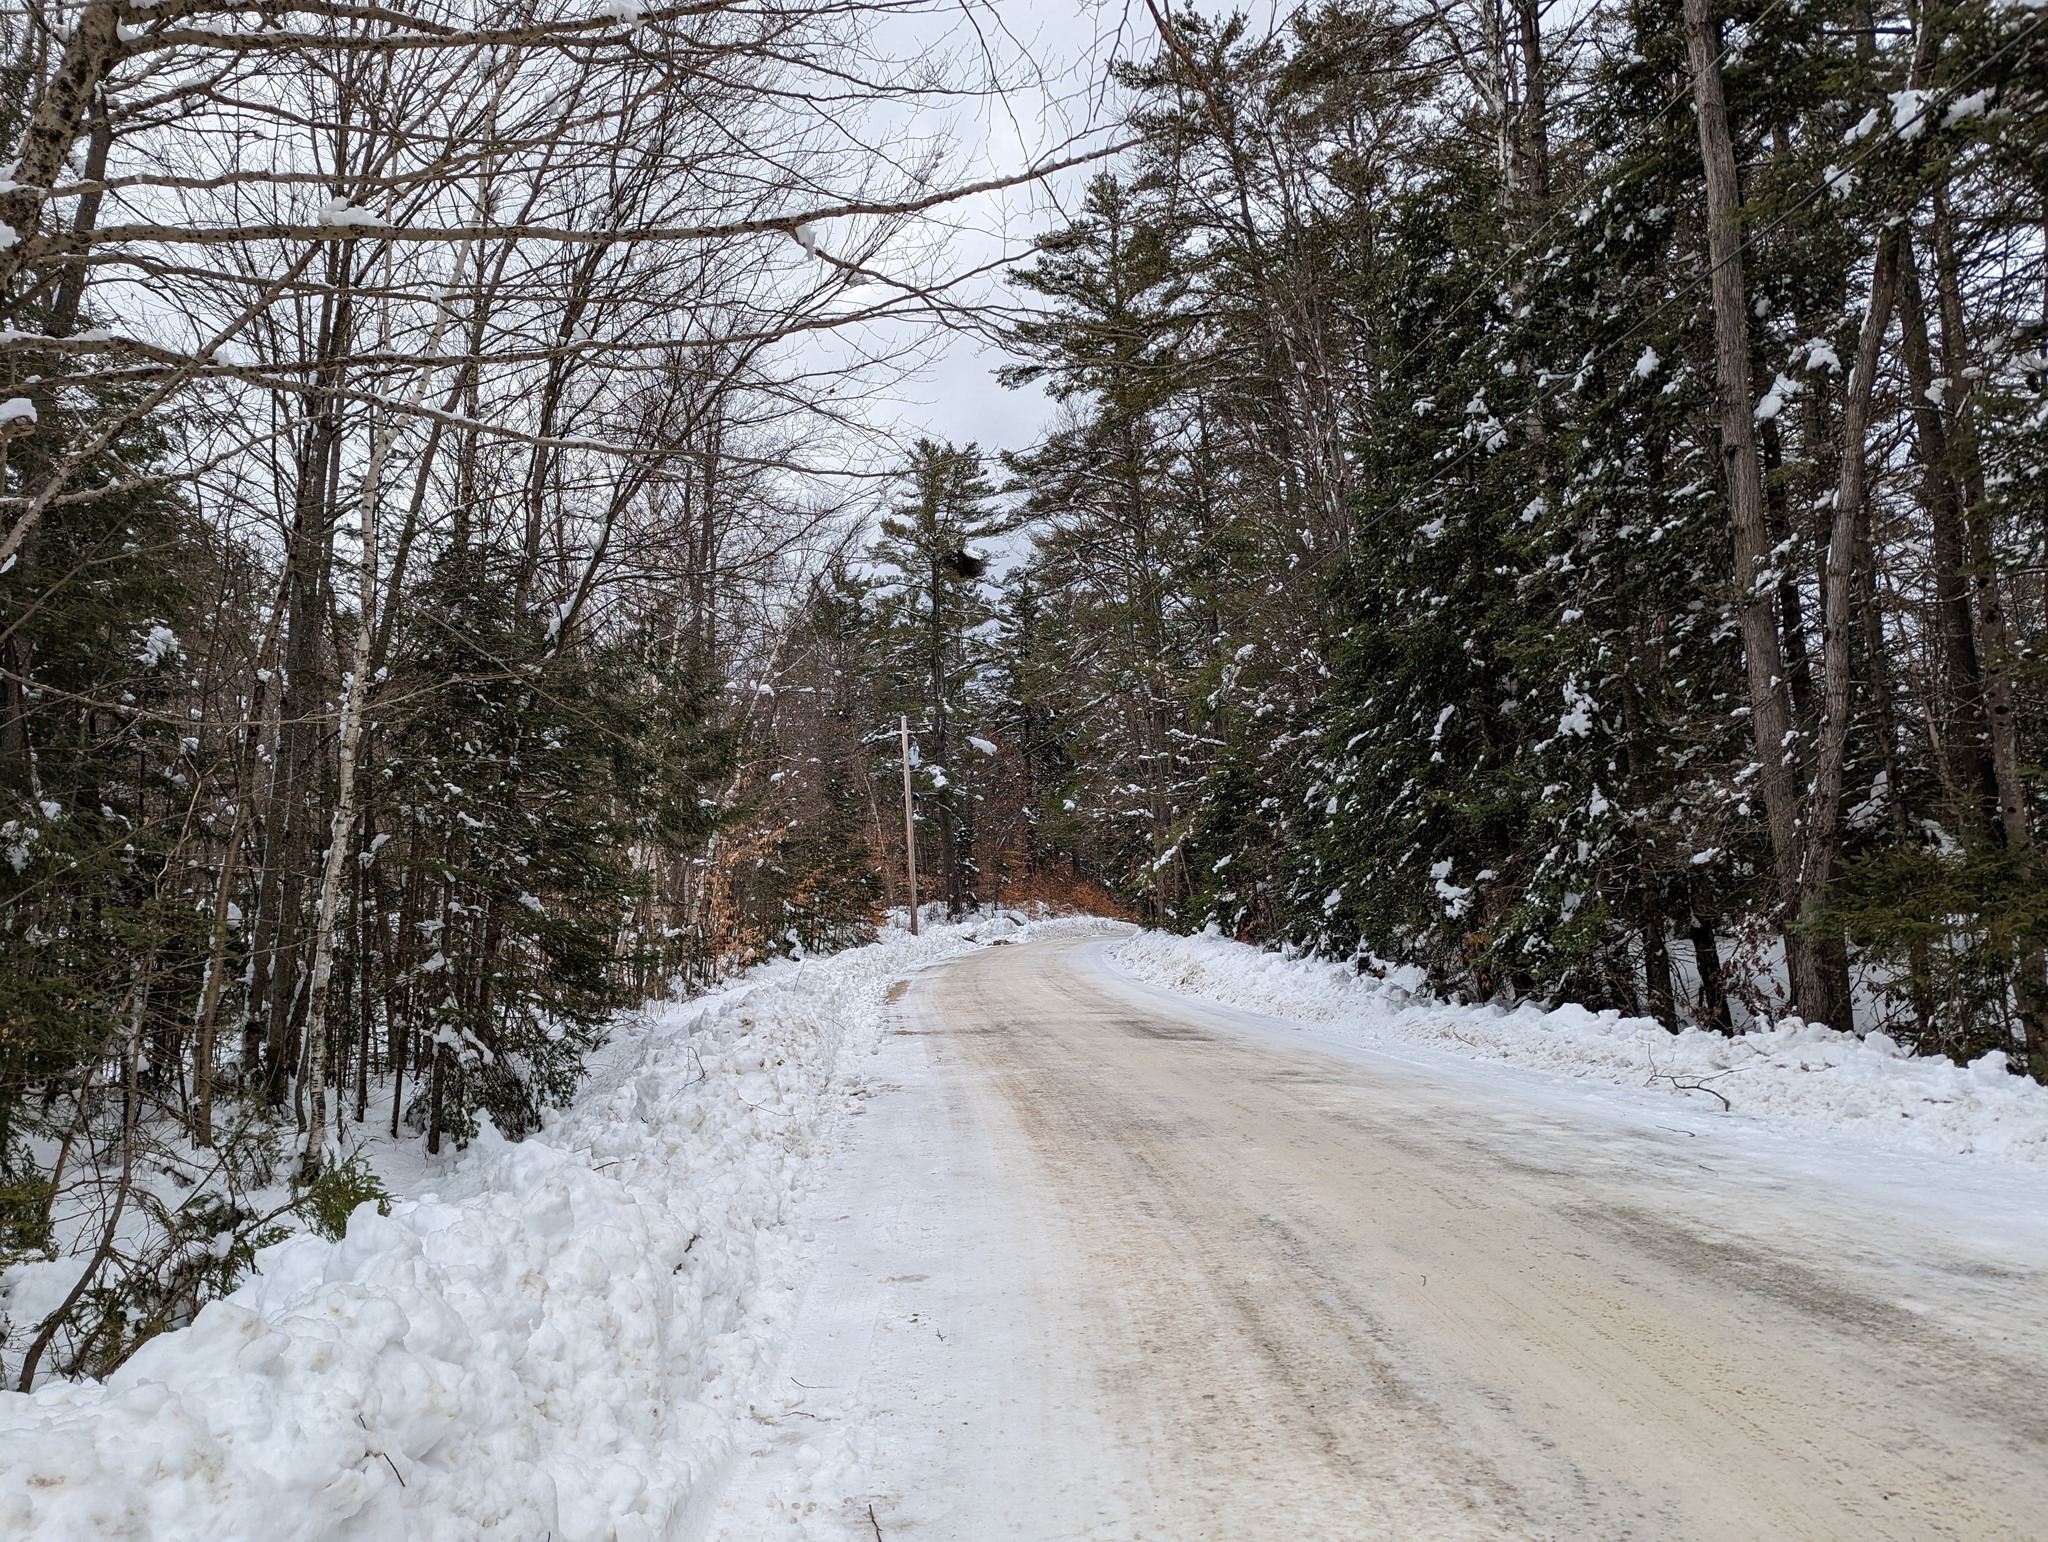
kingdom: Plantae
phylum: Tracheophyta
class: Pinopsida
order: Pinales
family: Pinaceae
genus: Pinus
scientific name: Pinus strobus
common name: Weymouth pine
